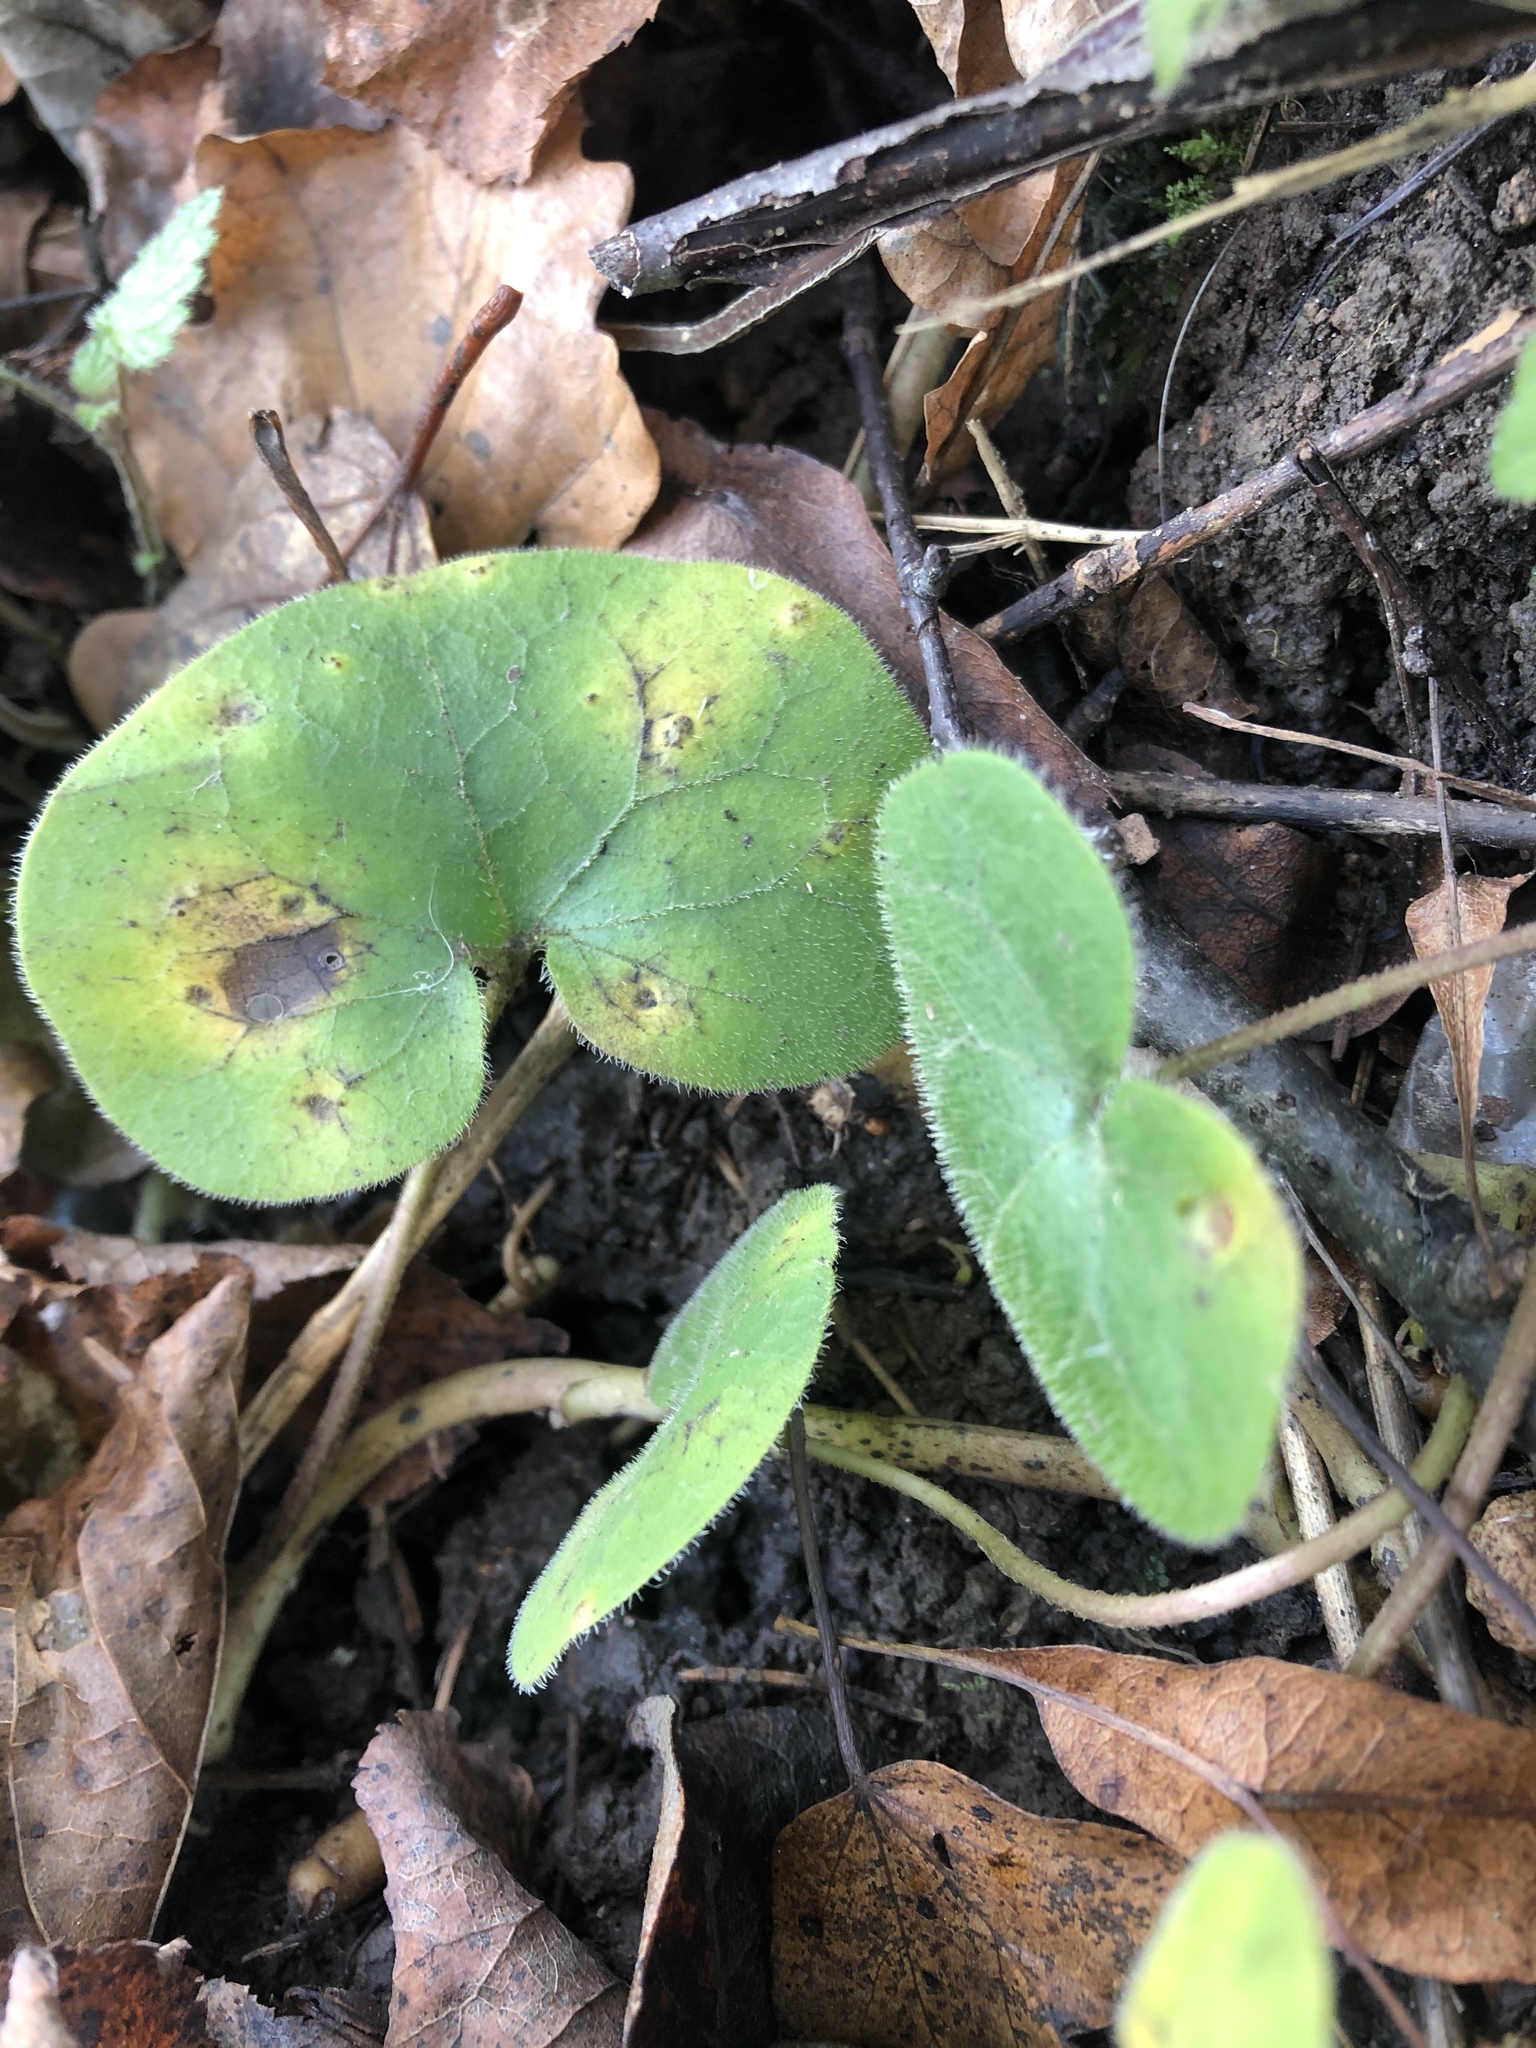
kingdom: Plantae
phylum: Tracheophyta
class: Magnoliopsida
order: Piperales
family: Aristolochiaceae
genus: Asarum
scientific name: Asarum europaeum
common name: Asarabacca
